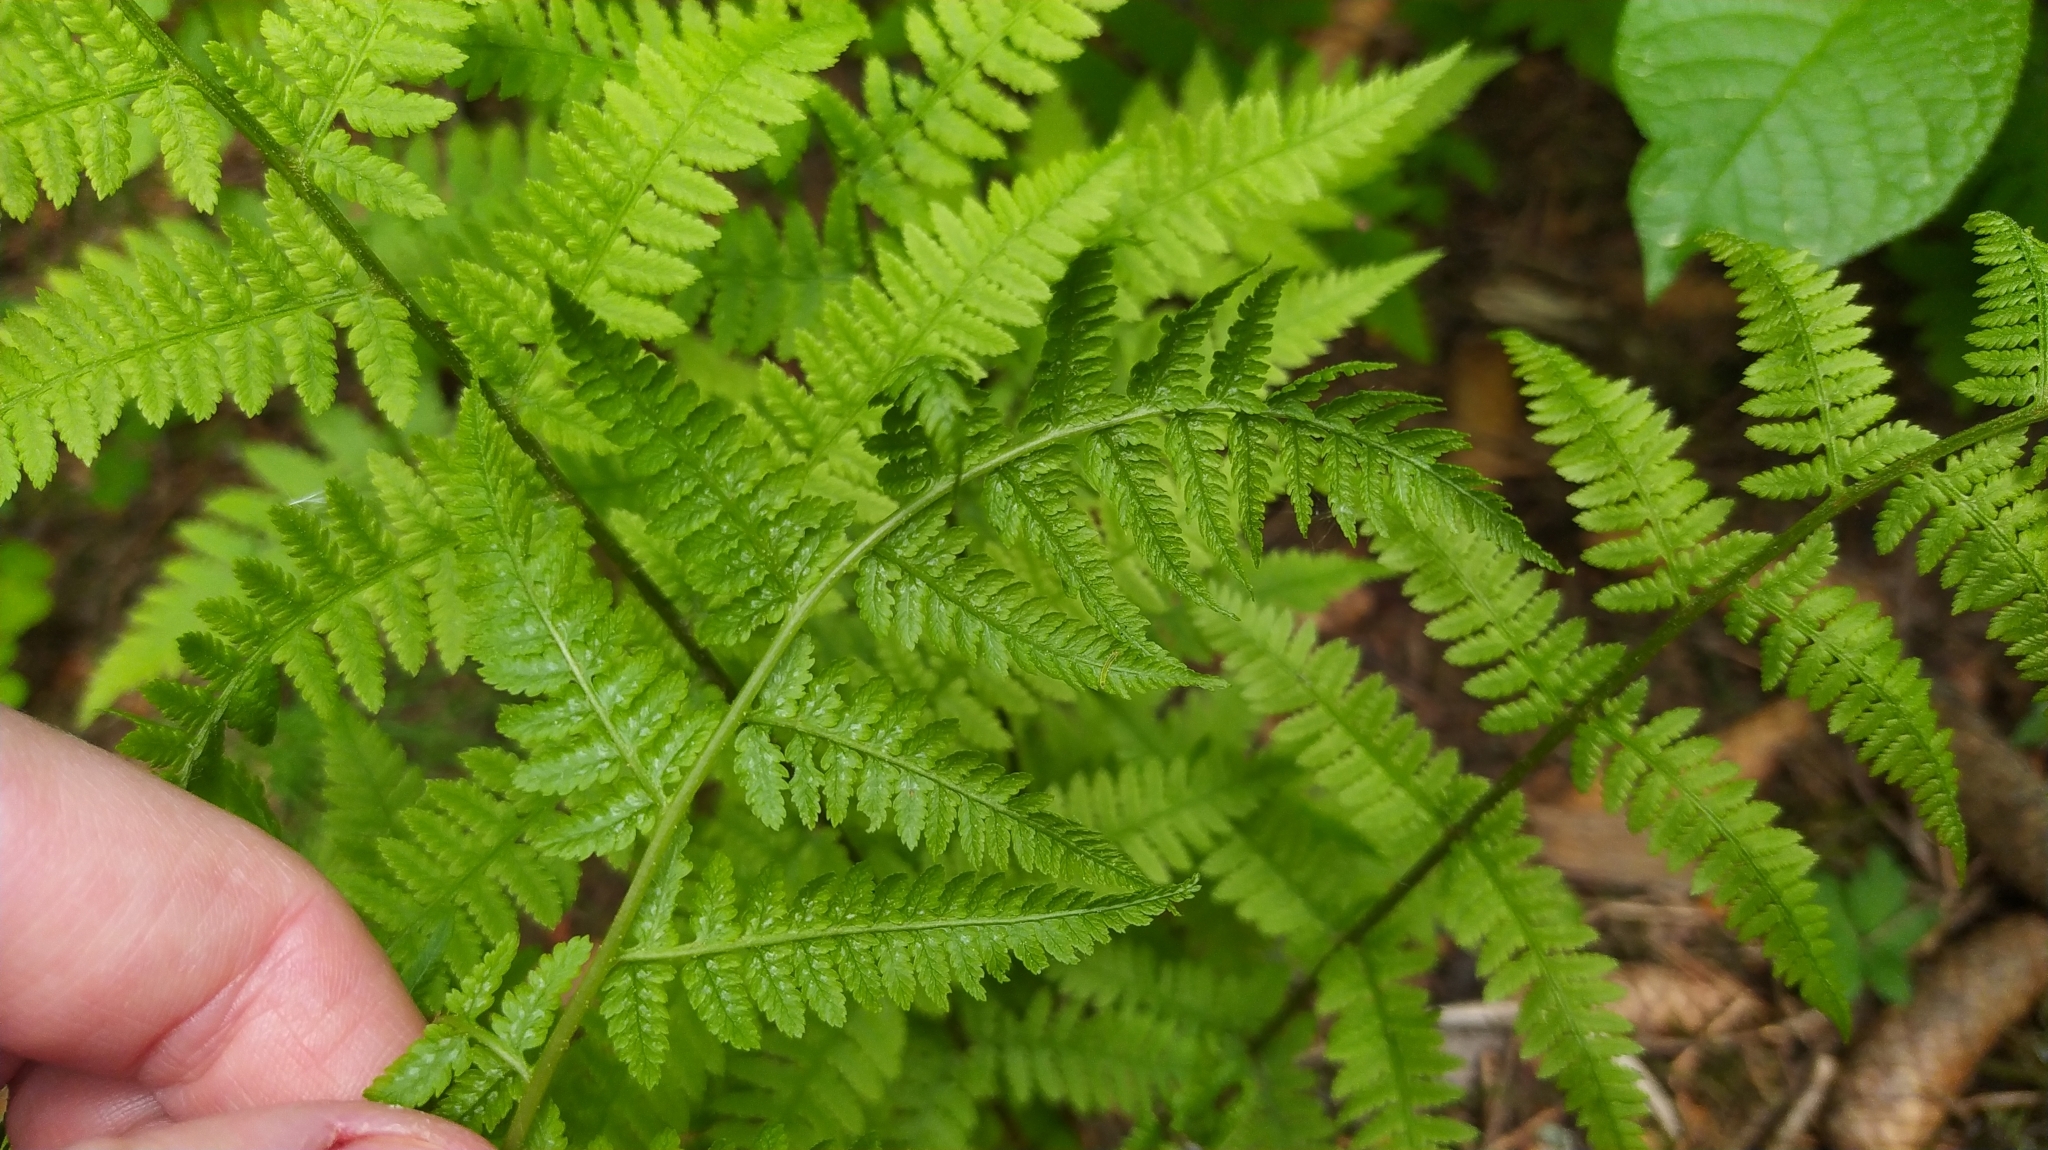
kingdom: Plantae
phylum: Tracheophyta
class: Polypodiopsida
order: Polypodiales
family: Athyriaceae
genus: Athyrium
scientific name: Athyrium filix-femina
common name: Lady fern
